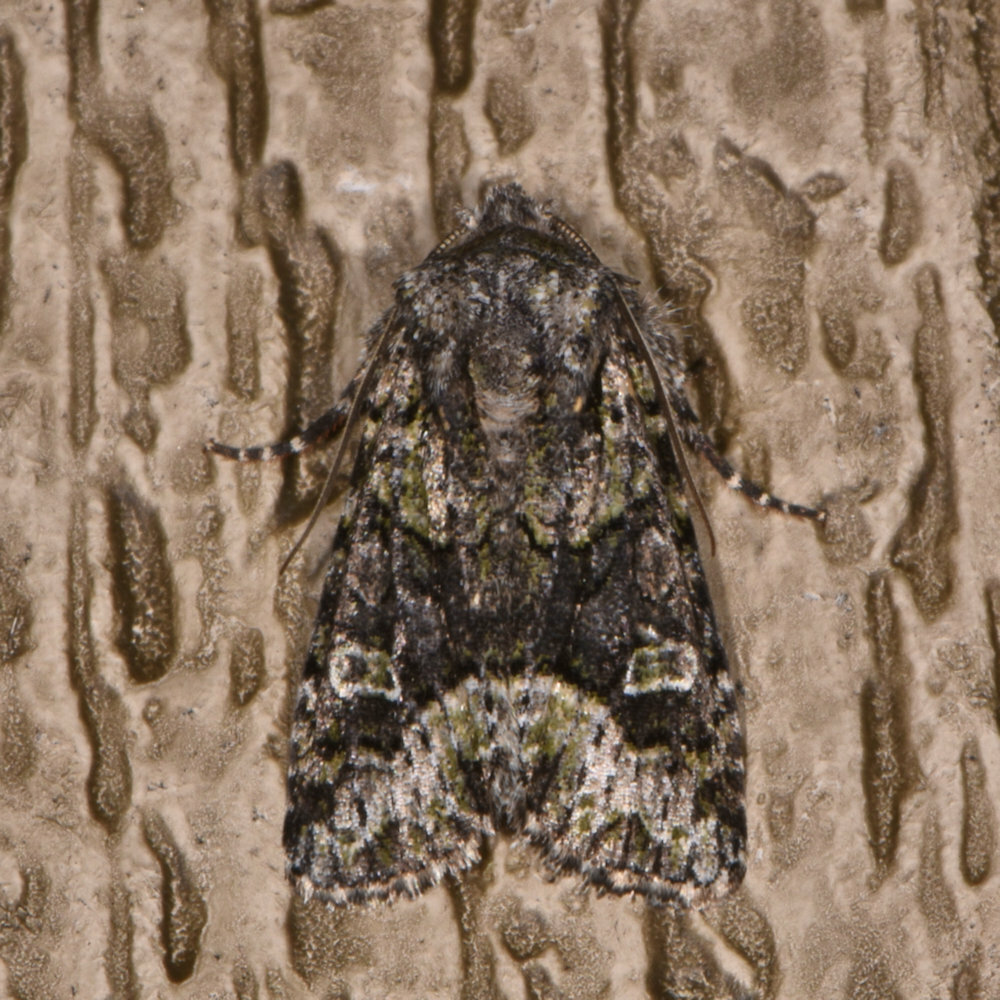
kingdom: Animalia
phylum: Arthropoda
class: Insecta
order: Lepidoptera
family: Noctuidae
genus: Lacinipolia
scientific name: Lacinipolia olivacea
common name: Olive arches moth
